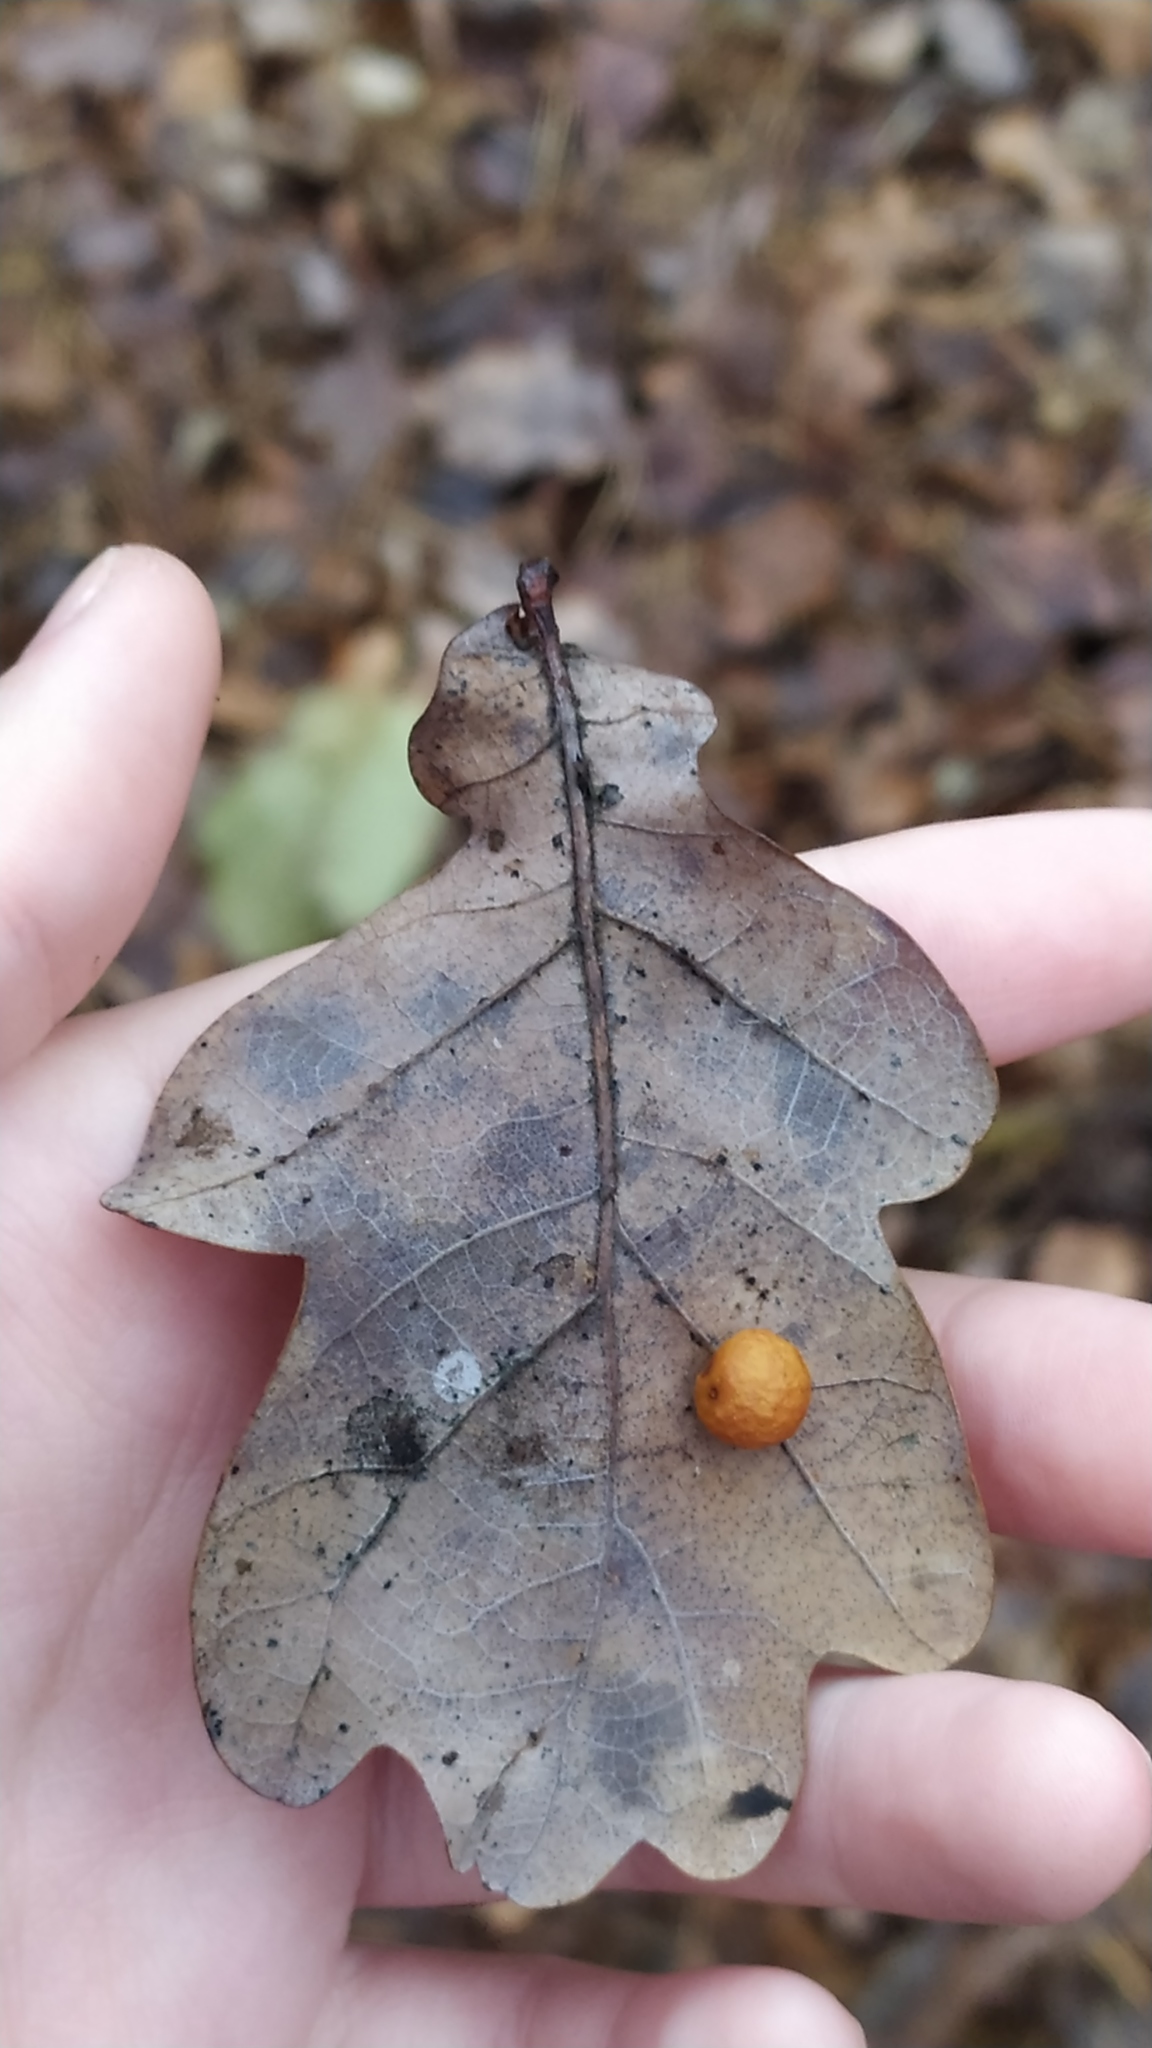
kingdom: Animalia
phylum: Arthropoda
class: Insecta
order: Hymenoptera
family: Cynipidae
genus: Cynips
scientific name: Cynips quercusfolii
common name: Cherry gall
